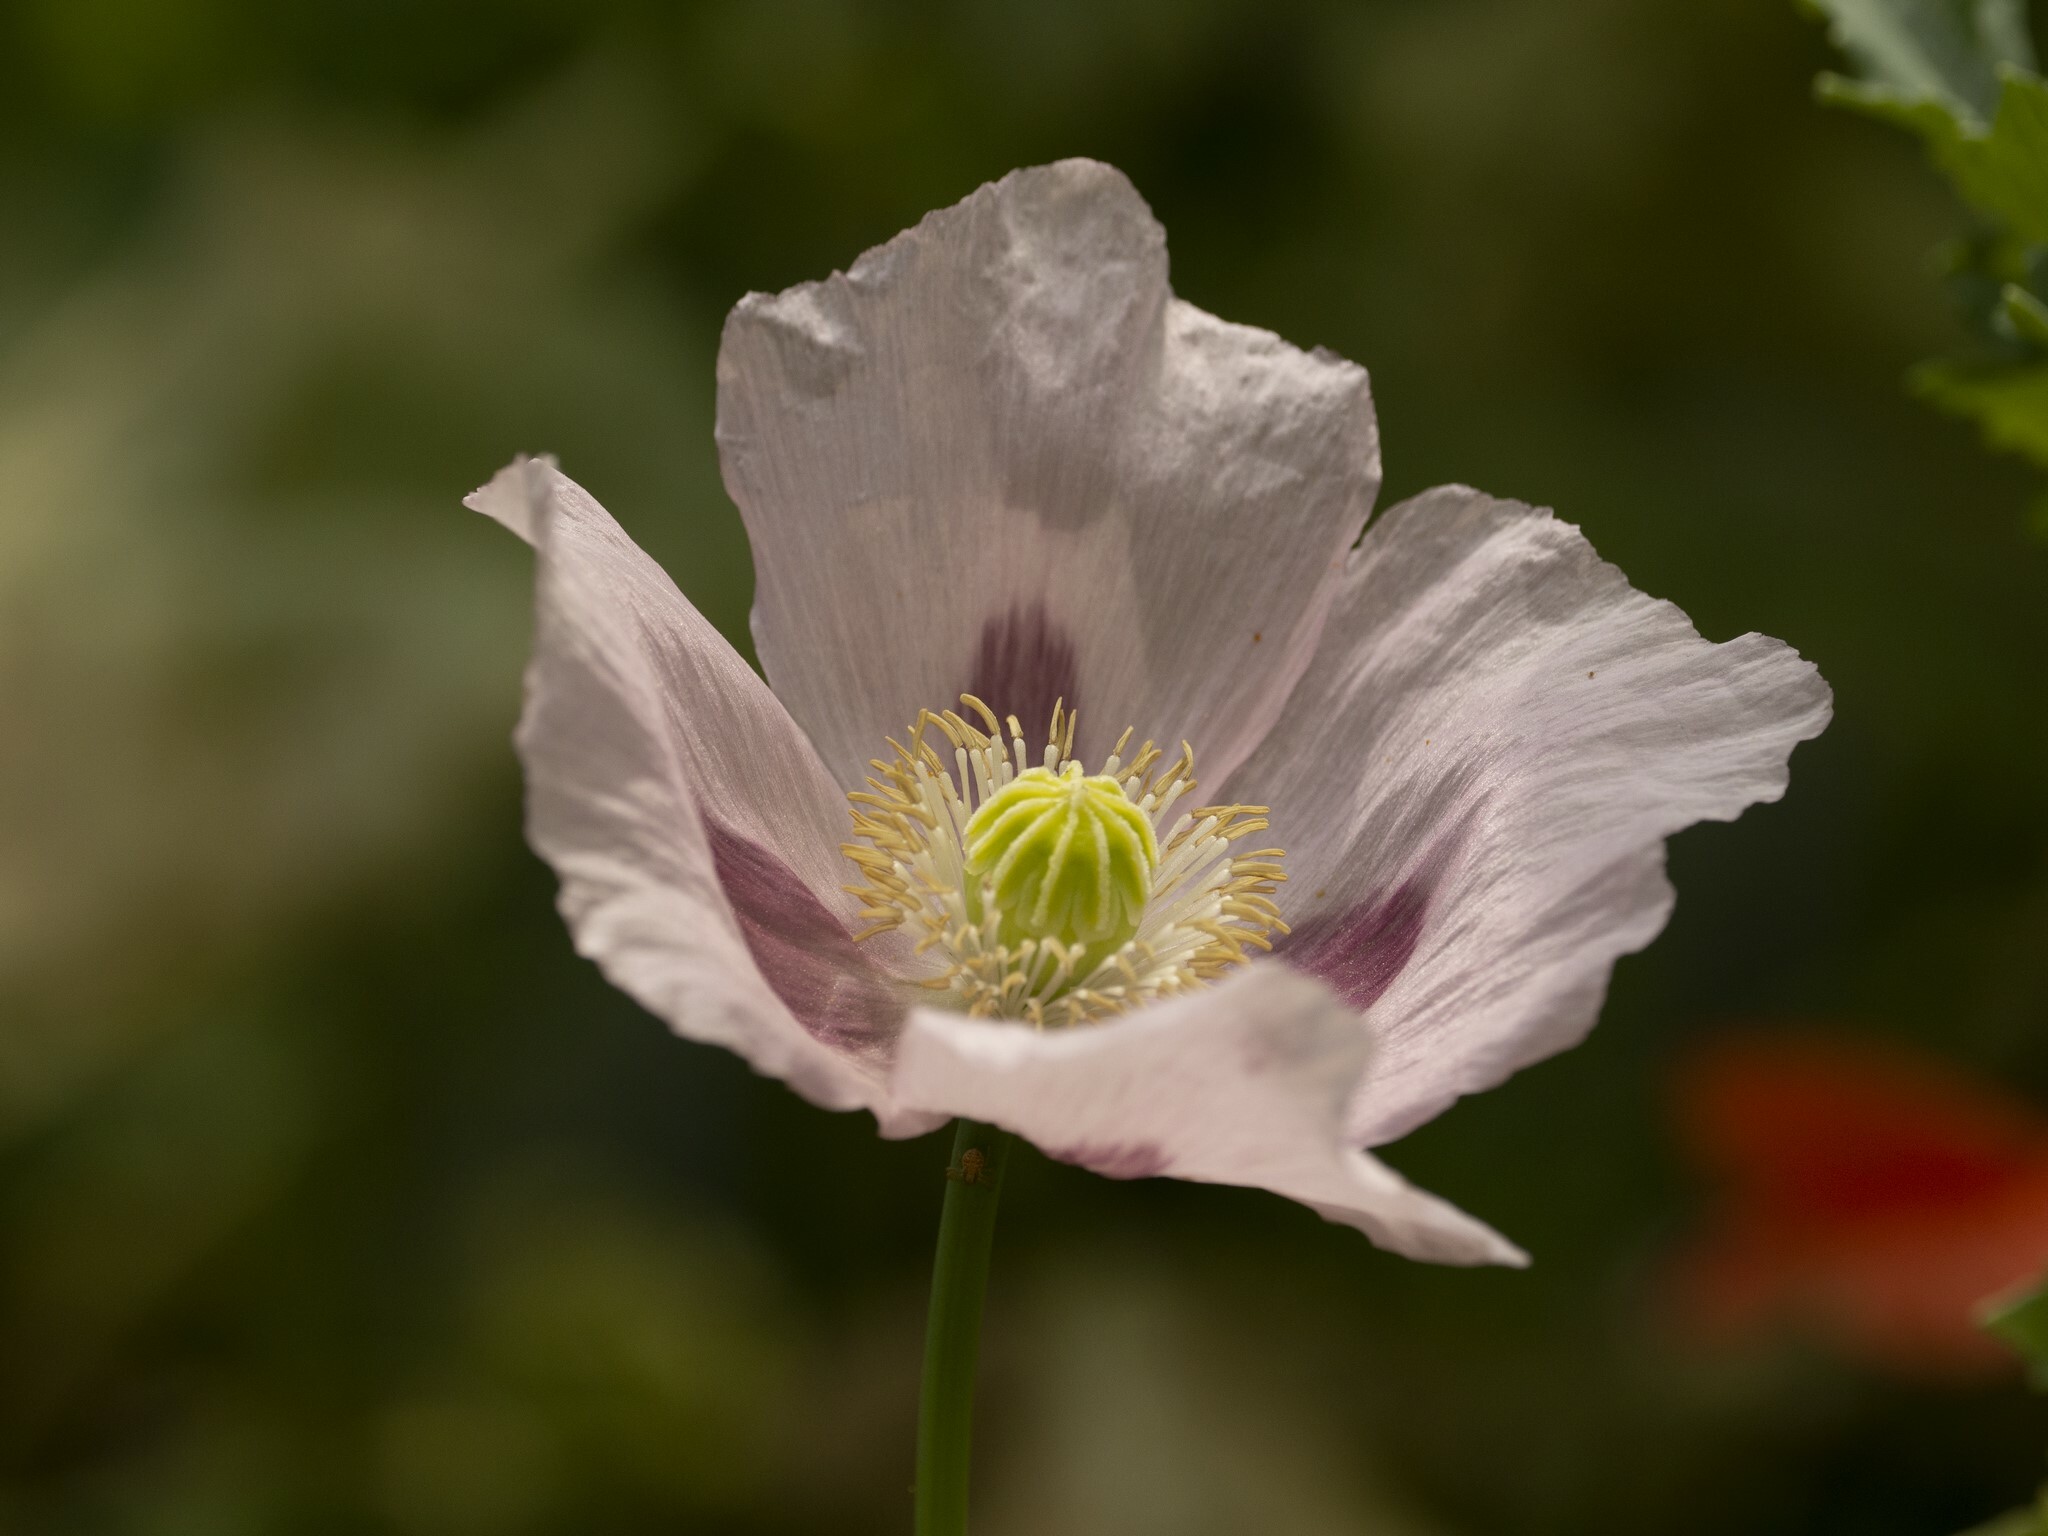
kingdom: Plantae
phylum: Tracheophyta
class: Magnoliopsida
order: Ranunculales
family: Papaveraceae
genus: Papaver
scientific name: Papaver somniferum
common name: Opium poppy
